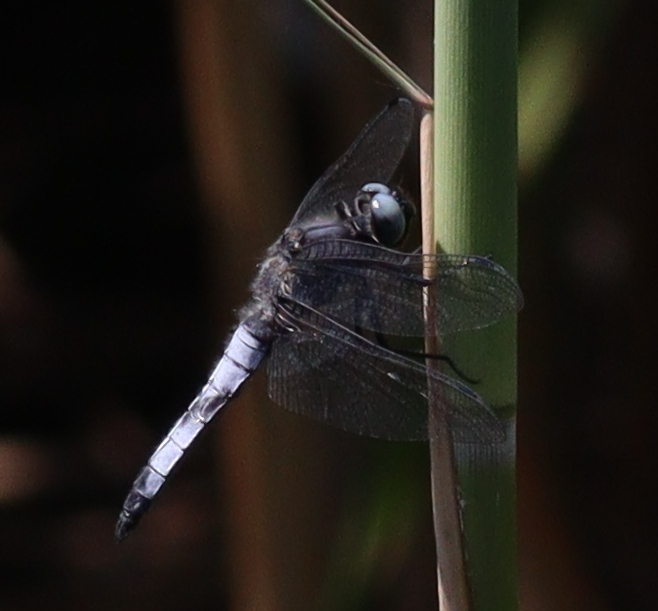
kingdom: Animalia
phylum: Arthropoda
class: Insecta
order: Odonata
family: Libellulidae
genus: Libellula
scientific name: Libellula fulva
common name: Blue chaser
